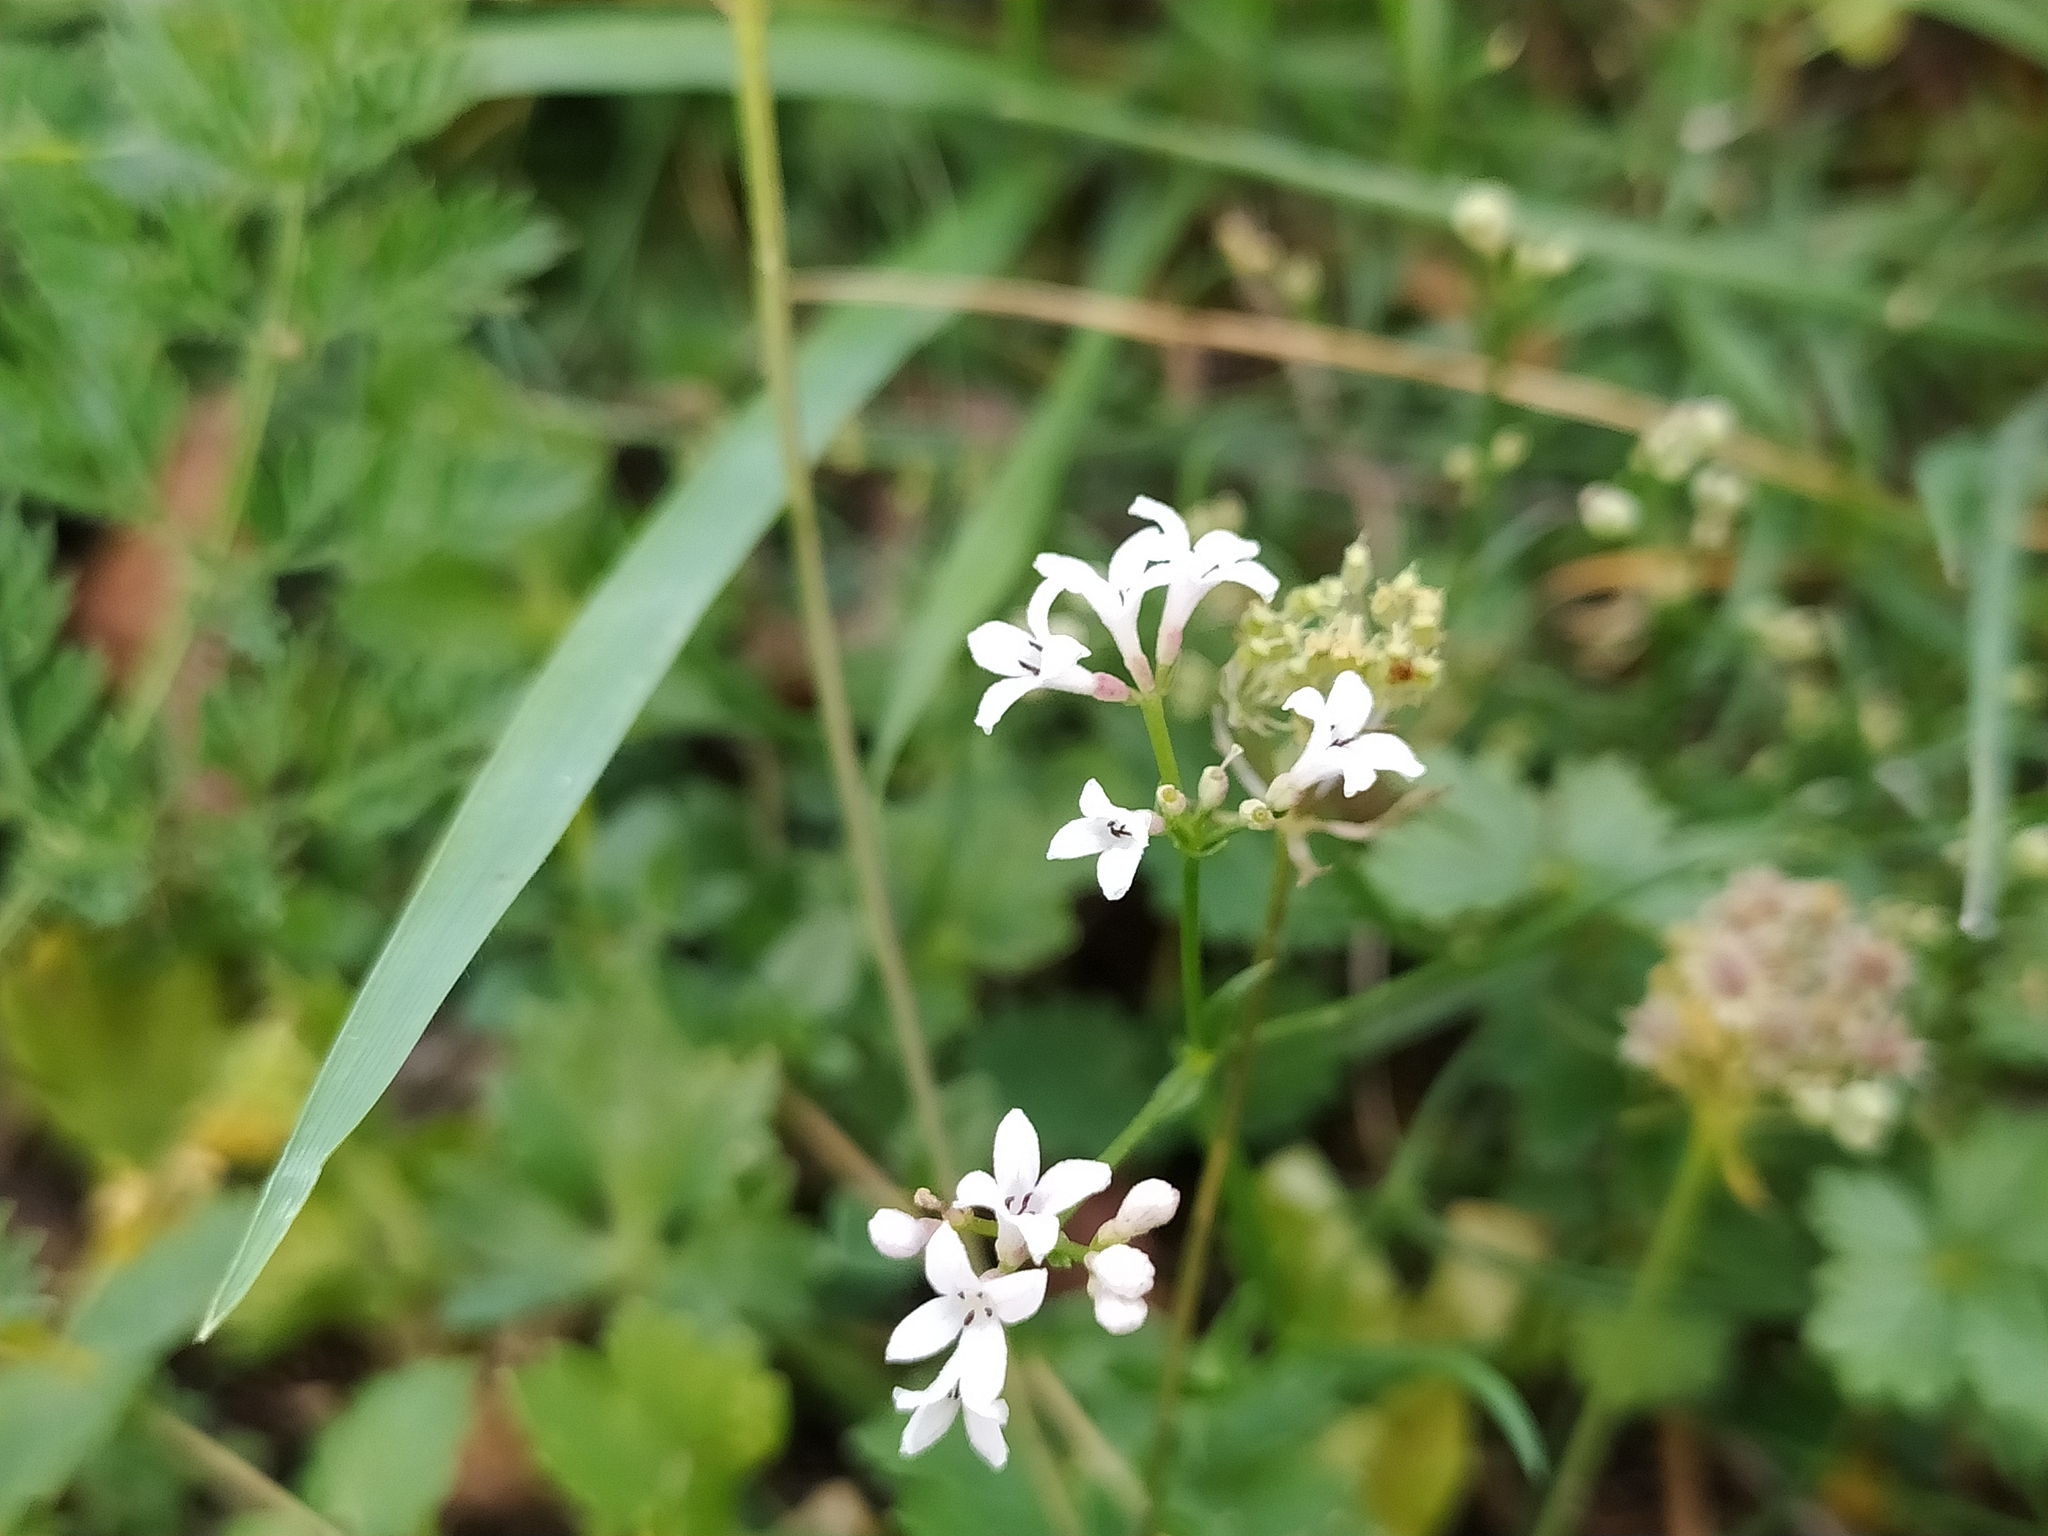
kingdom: Plantae
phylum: Tracheophyta
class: Magnoliopsida
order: Gentianales
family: Rubiaceae
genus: Cynanchica
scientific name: Cynanchica pyrenaica
